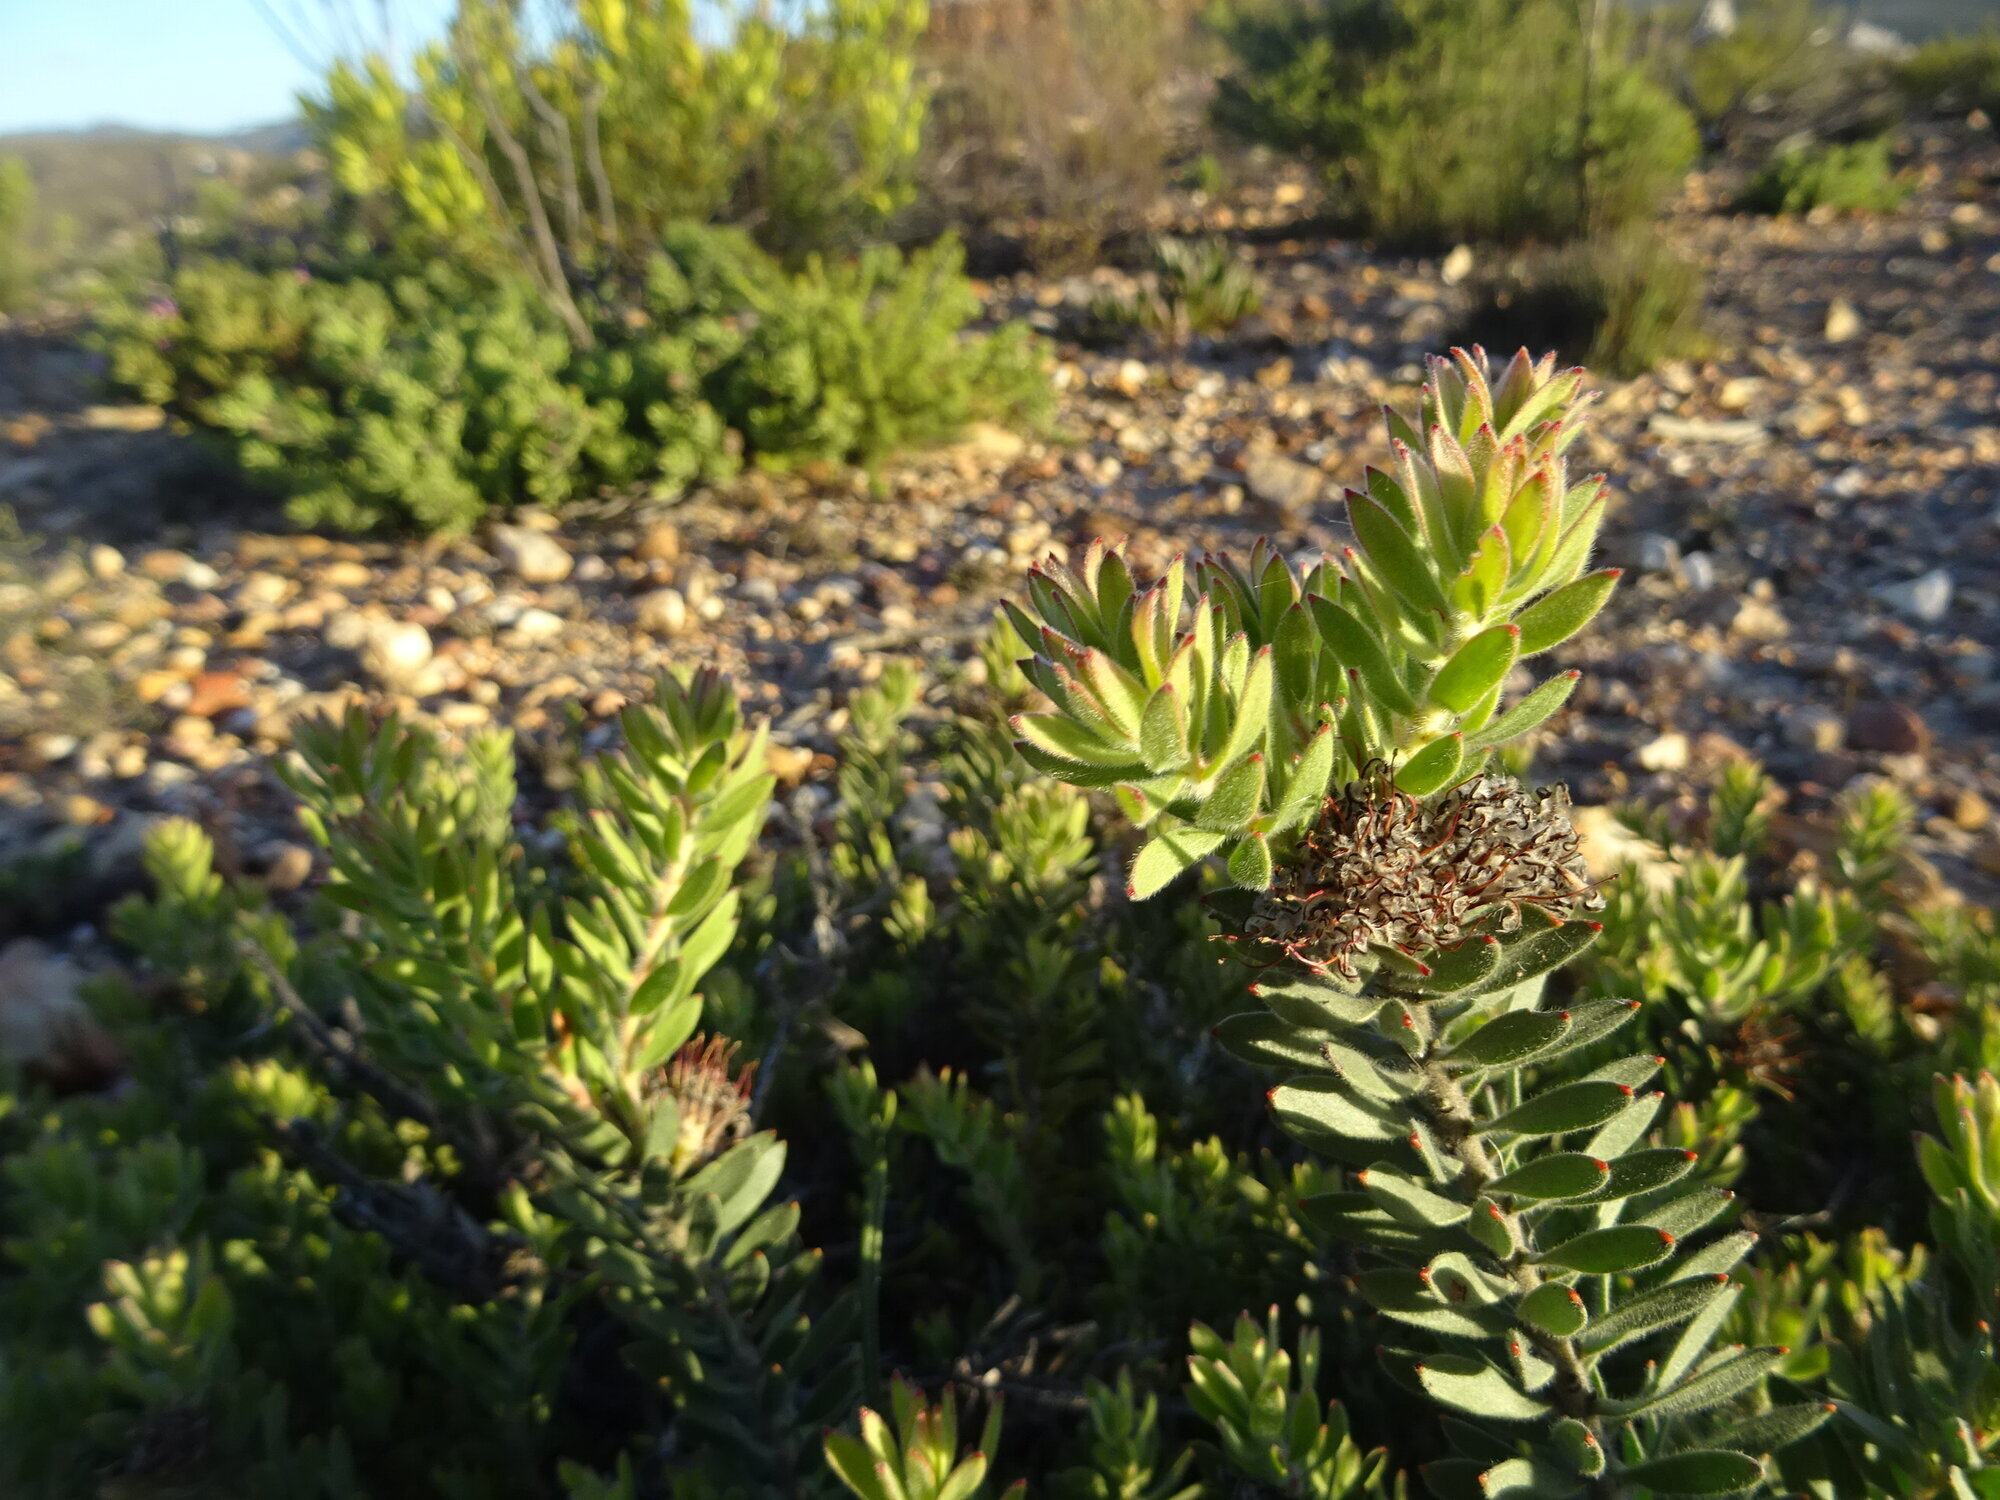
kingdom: Plantae
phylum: Tracheophyta
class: Magnoliopsida
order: Proteales
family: Proteaceae
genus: Leucospermum
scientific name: Leucospermum royenifolium
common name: Eastern pincushion
